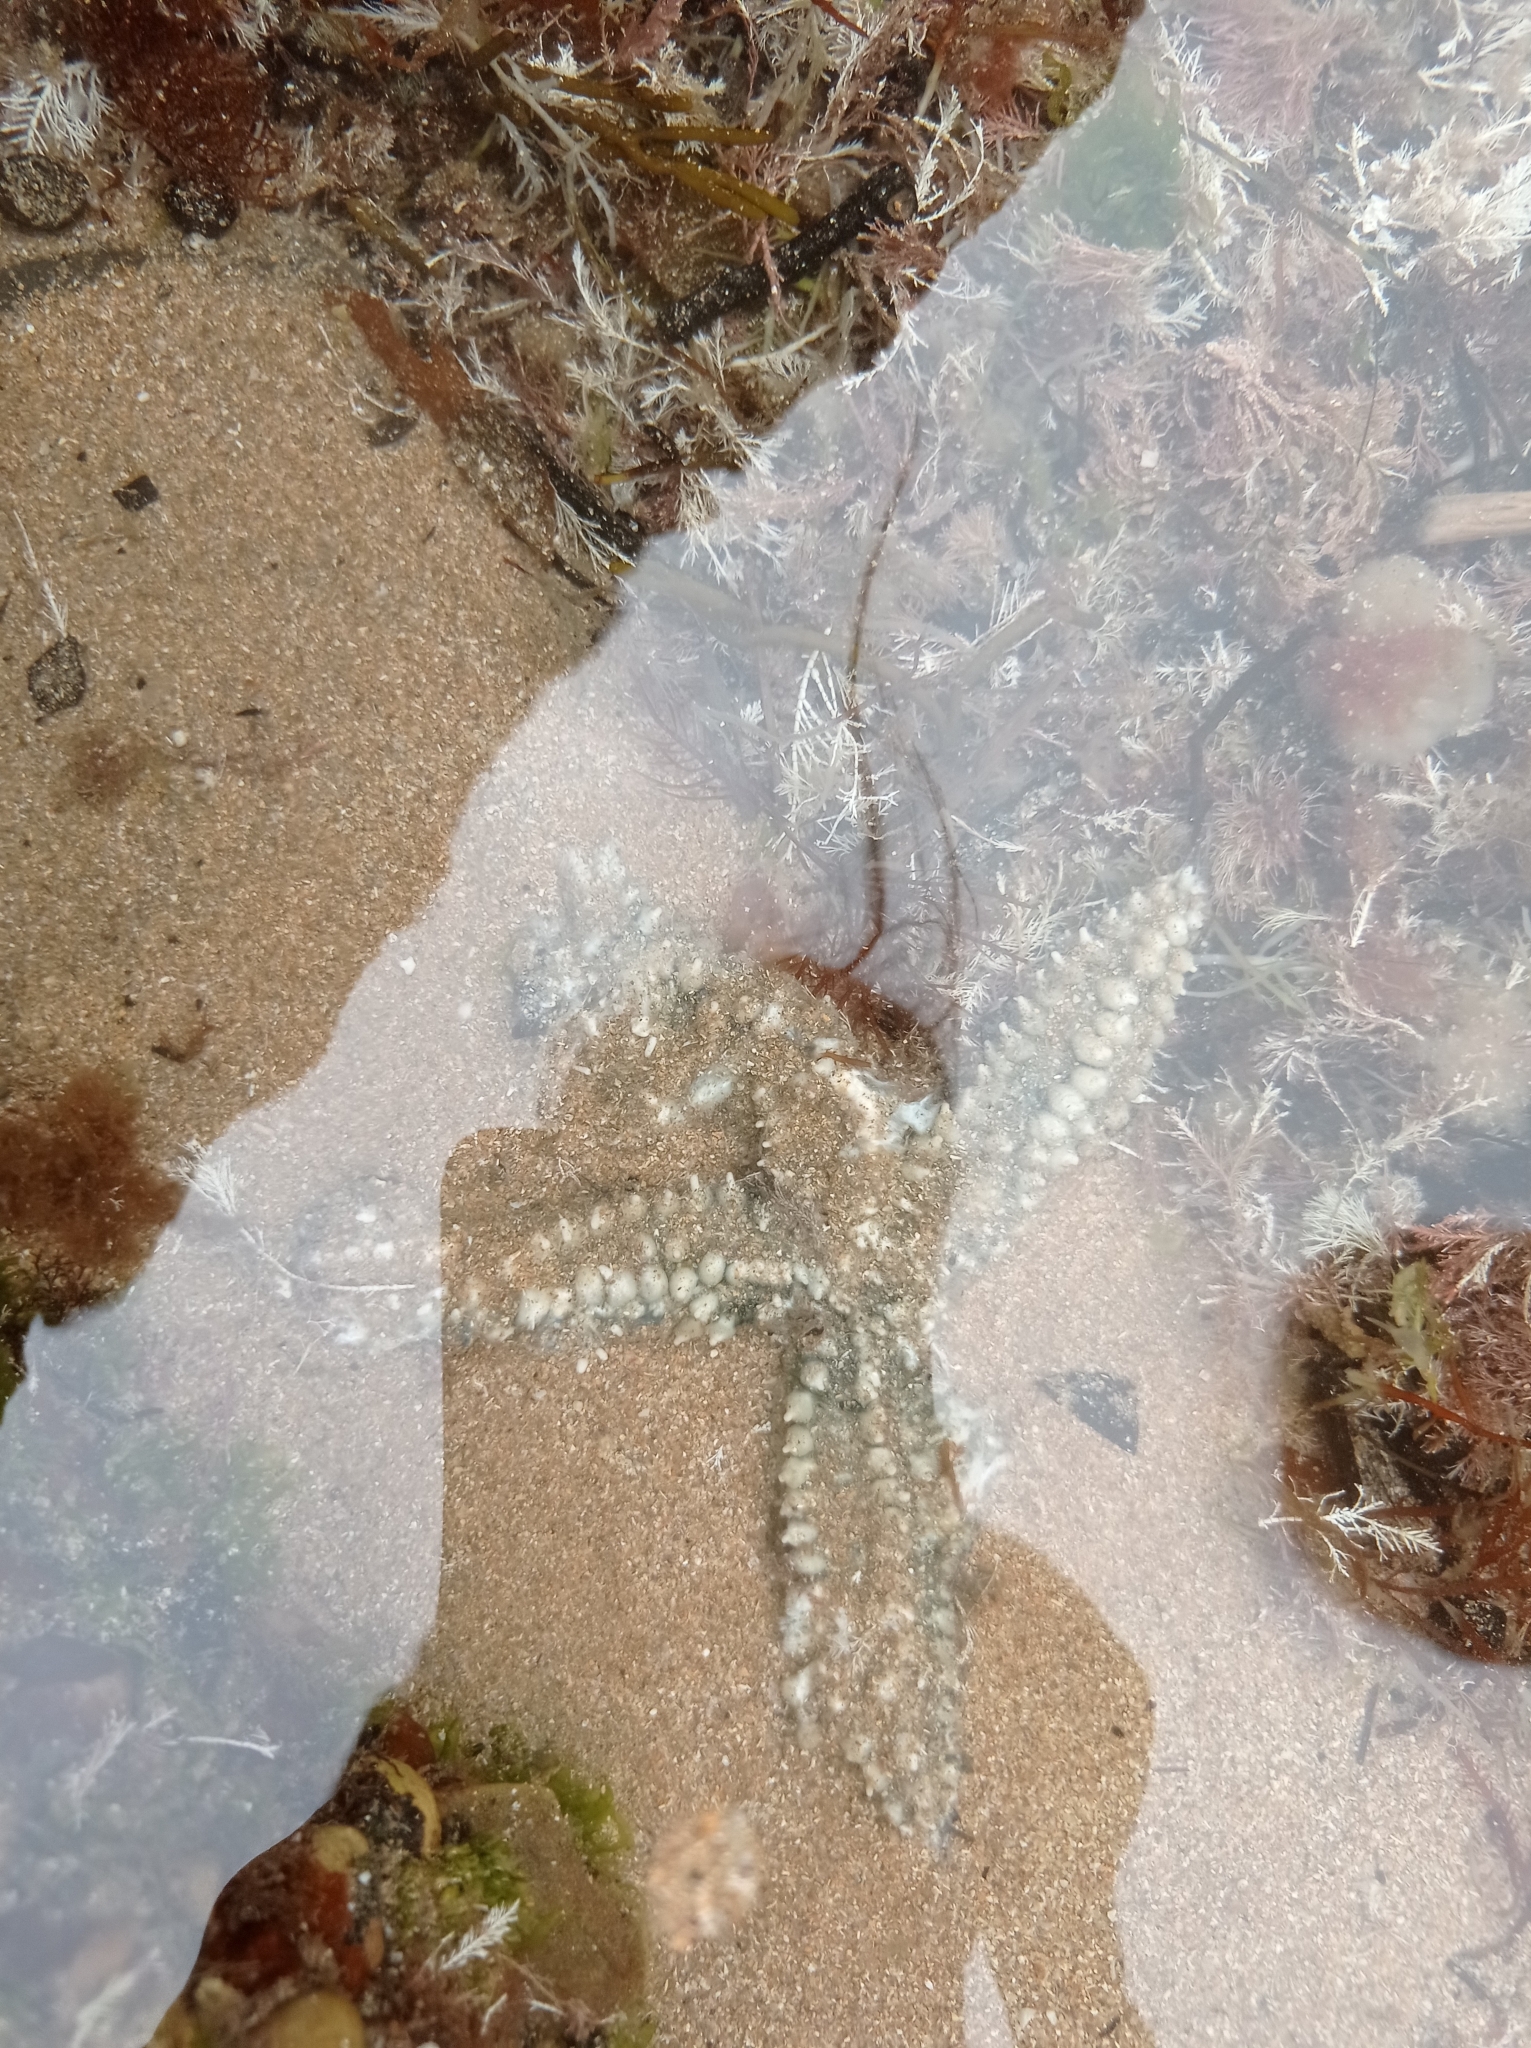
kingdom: Animalia
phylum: Echinodermata
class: Asteroidea
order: Forcipulatida
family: Asteriidae
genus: Marthasterias
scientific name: Marthasterias glacialis
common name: Spiny starfish
